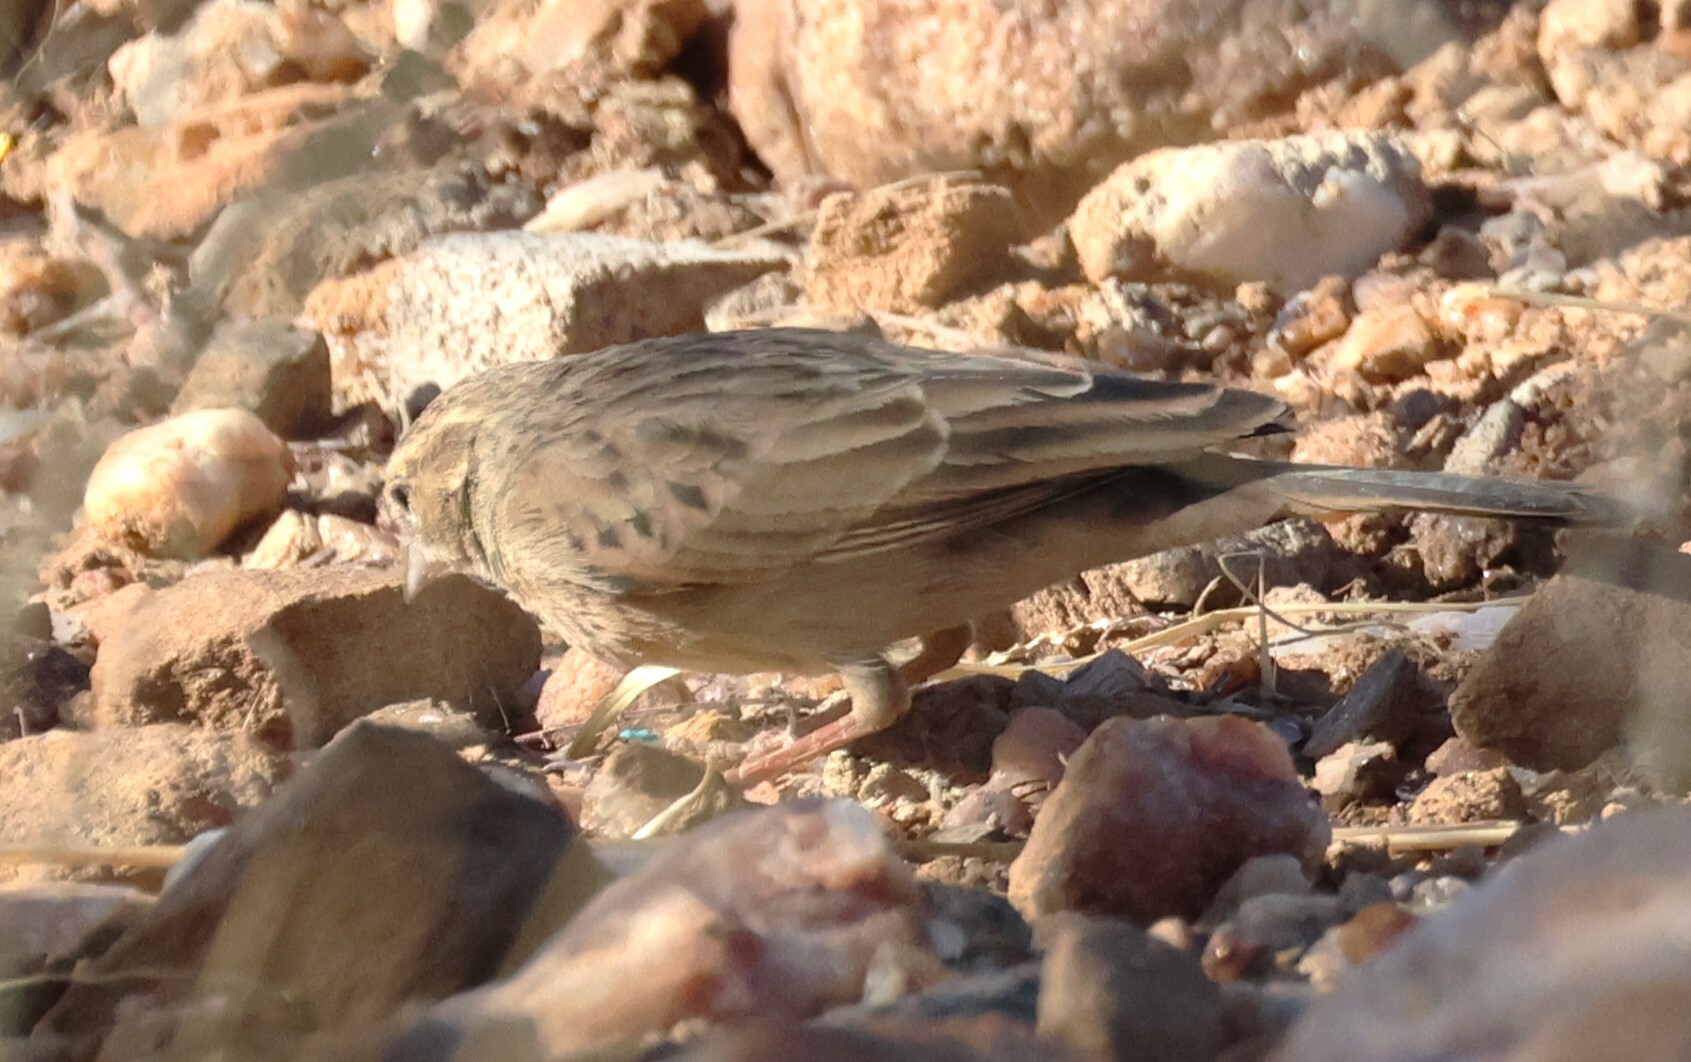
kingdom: Animalia
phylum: Chordata
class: Aves
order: Passeriformes
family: Emberizidae
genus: Emberiza
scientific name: Emberiza impetuani
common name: Lark-like bunting
